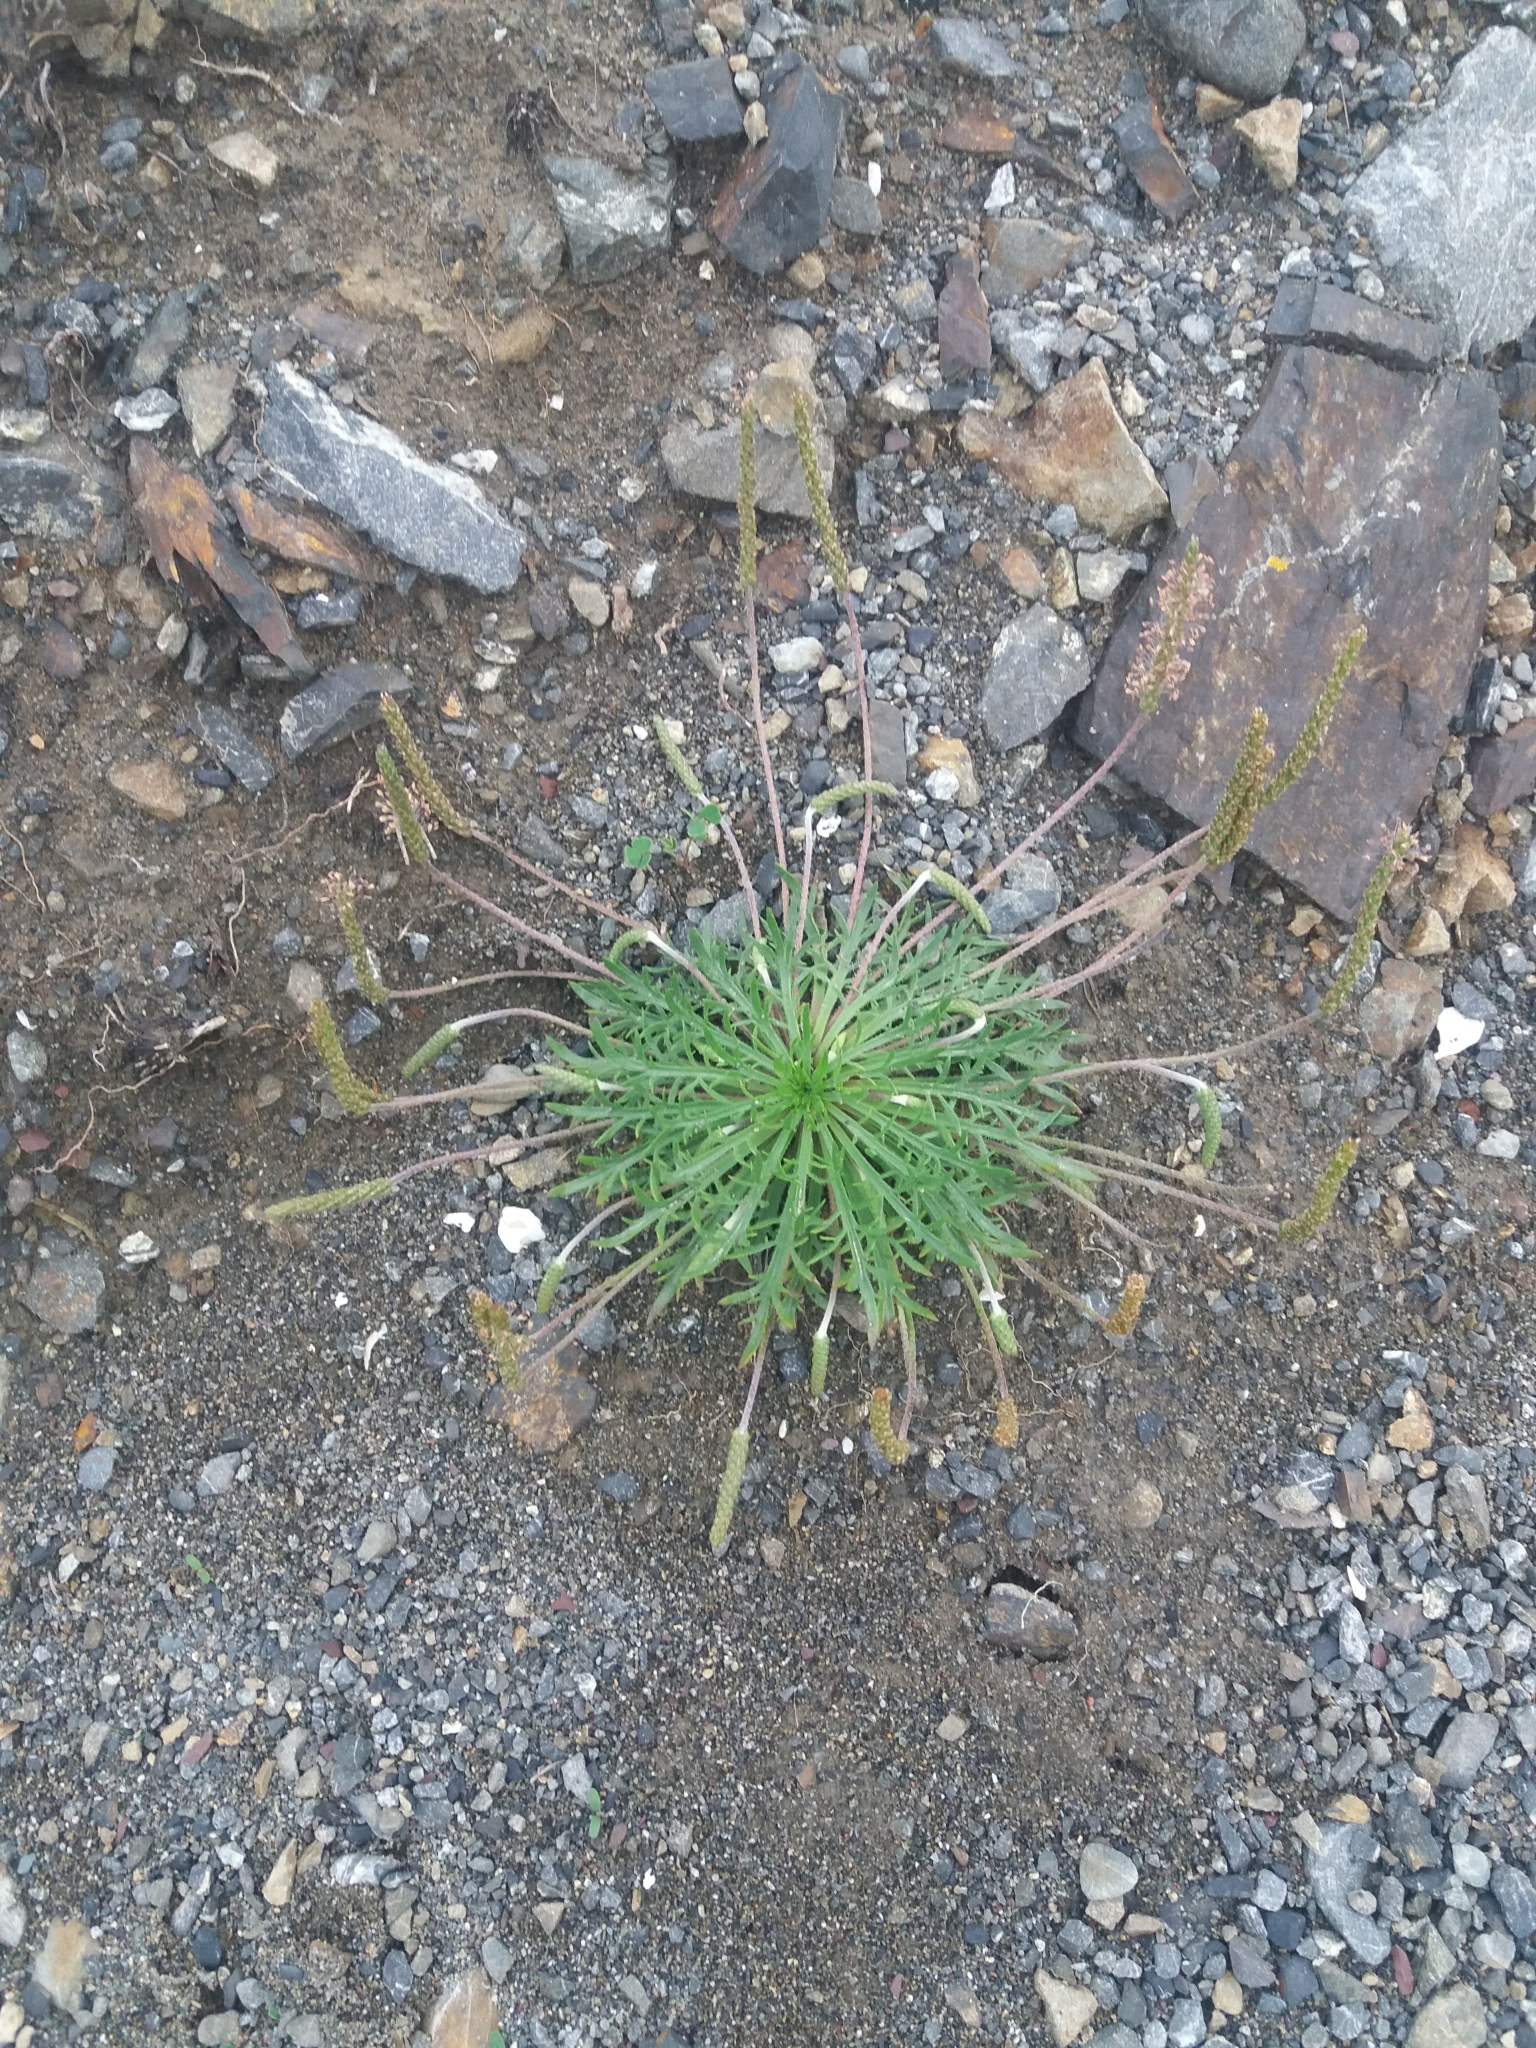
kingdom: Plantae
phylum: Tracheophyta
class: Magnoliopsida
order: Lamiales
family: Plantaginaceae
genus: Plantago
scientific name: Plantago coronopus
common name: Buck's-horn plantain
